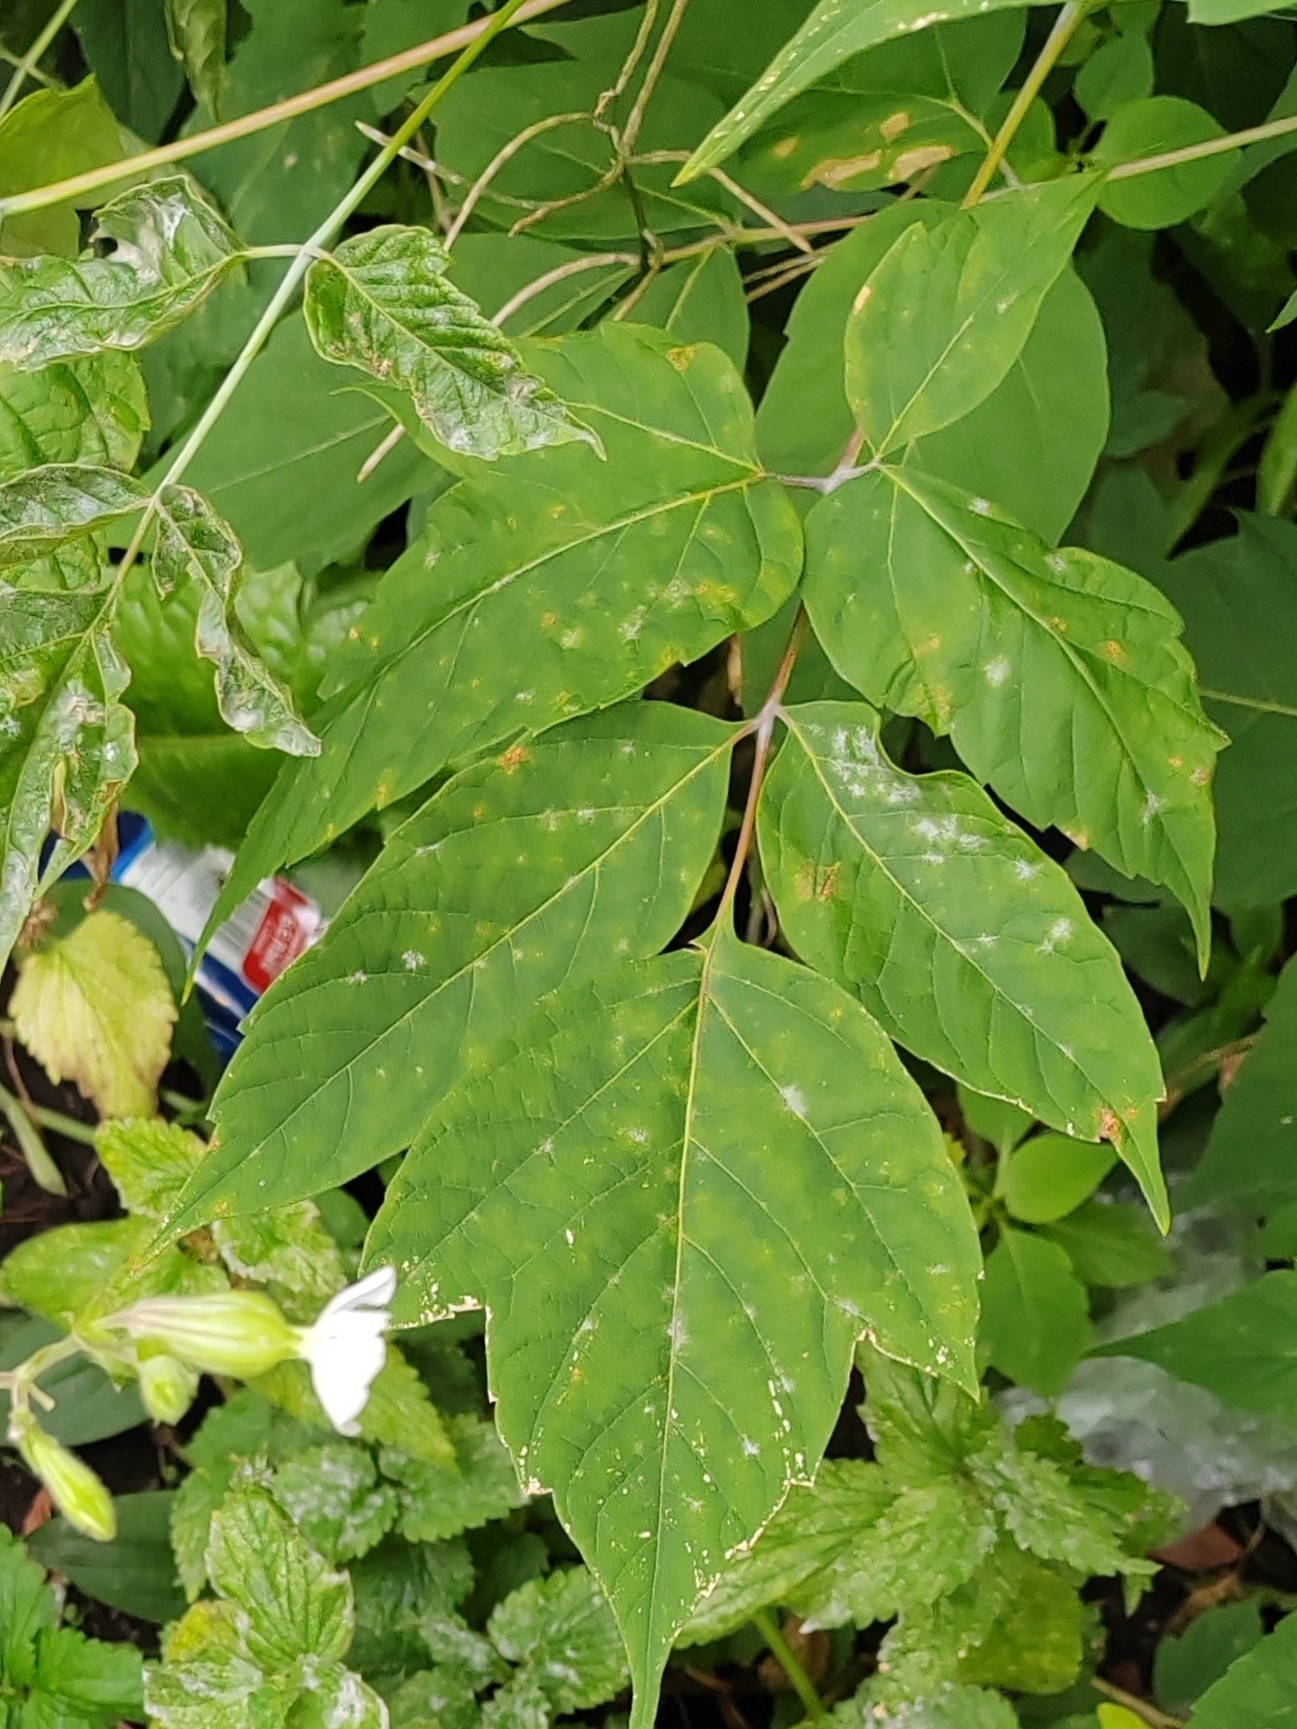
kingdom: Plantae
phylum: Tracheophyta
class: Magnoliopsida
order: Sapindales
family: Sapindaceae
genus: Acer
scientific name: Acer negundo
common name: Ashleaf maple
